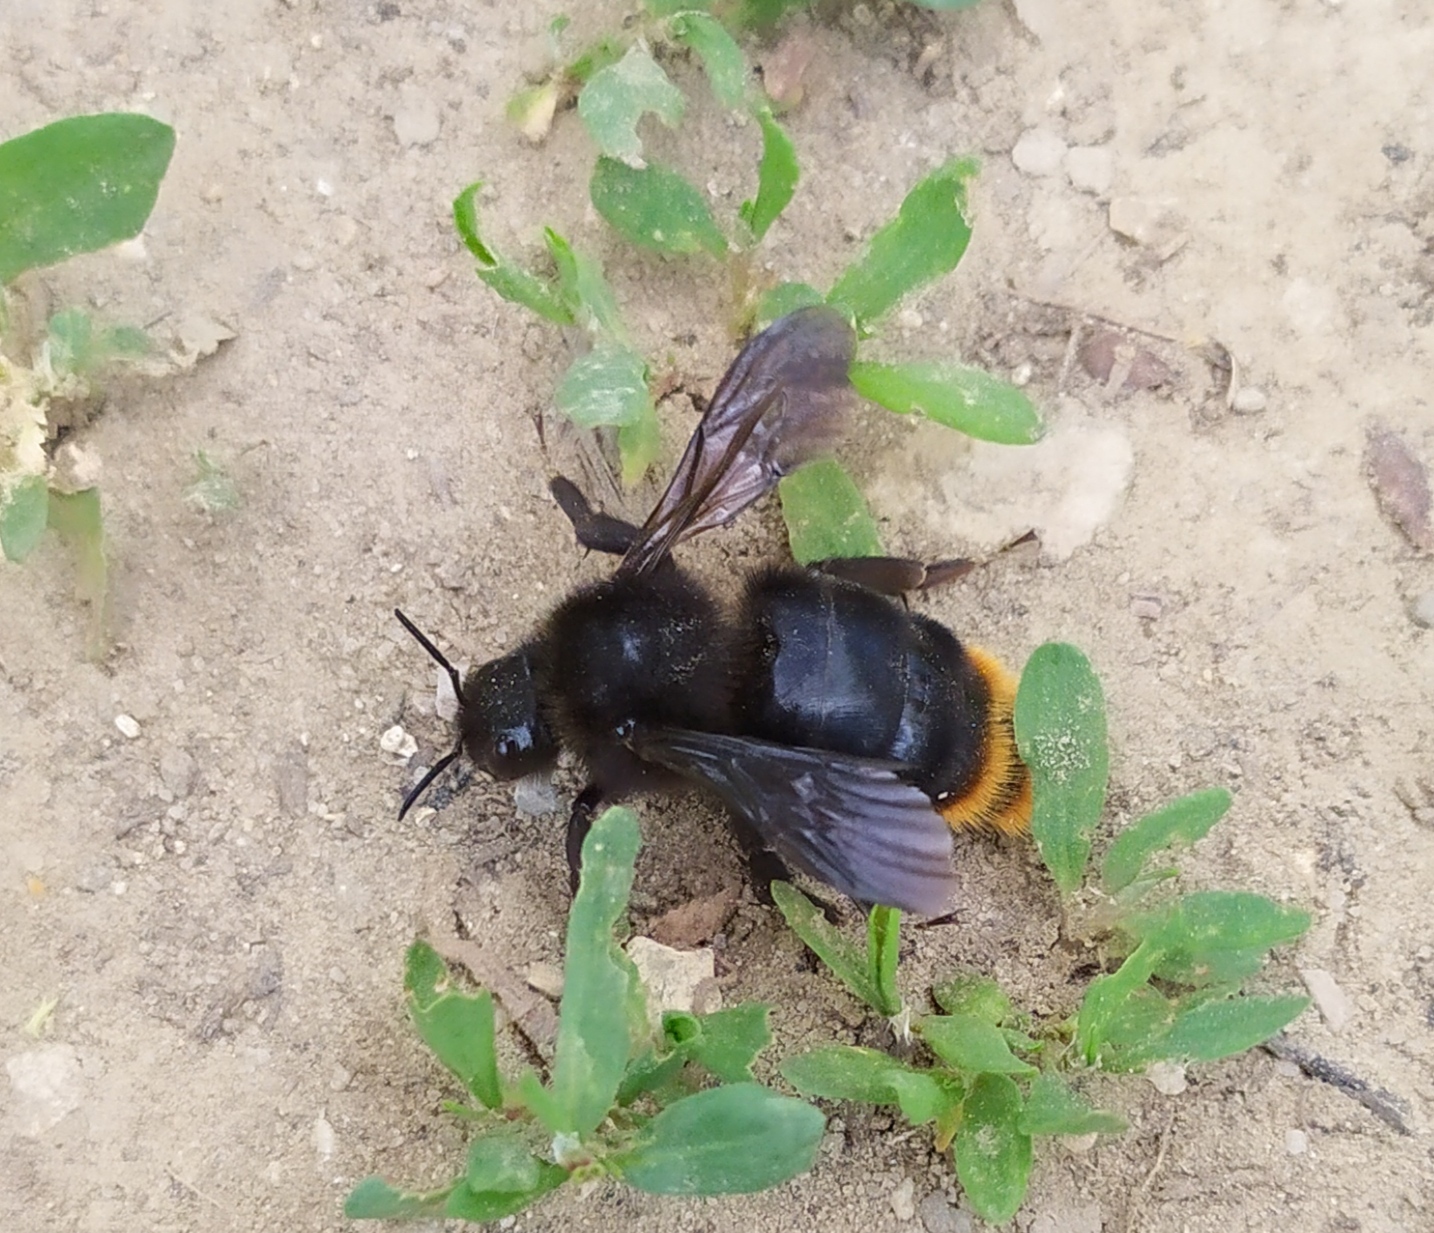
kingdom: Animalia
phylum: Arthropoda
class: Insecta
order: Hymenoptera
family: Apidae
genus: Bombus
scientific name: Bombus rupestris
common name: Hill cuckoo-bee
